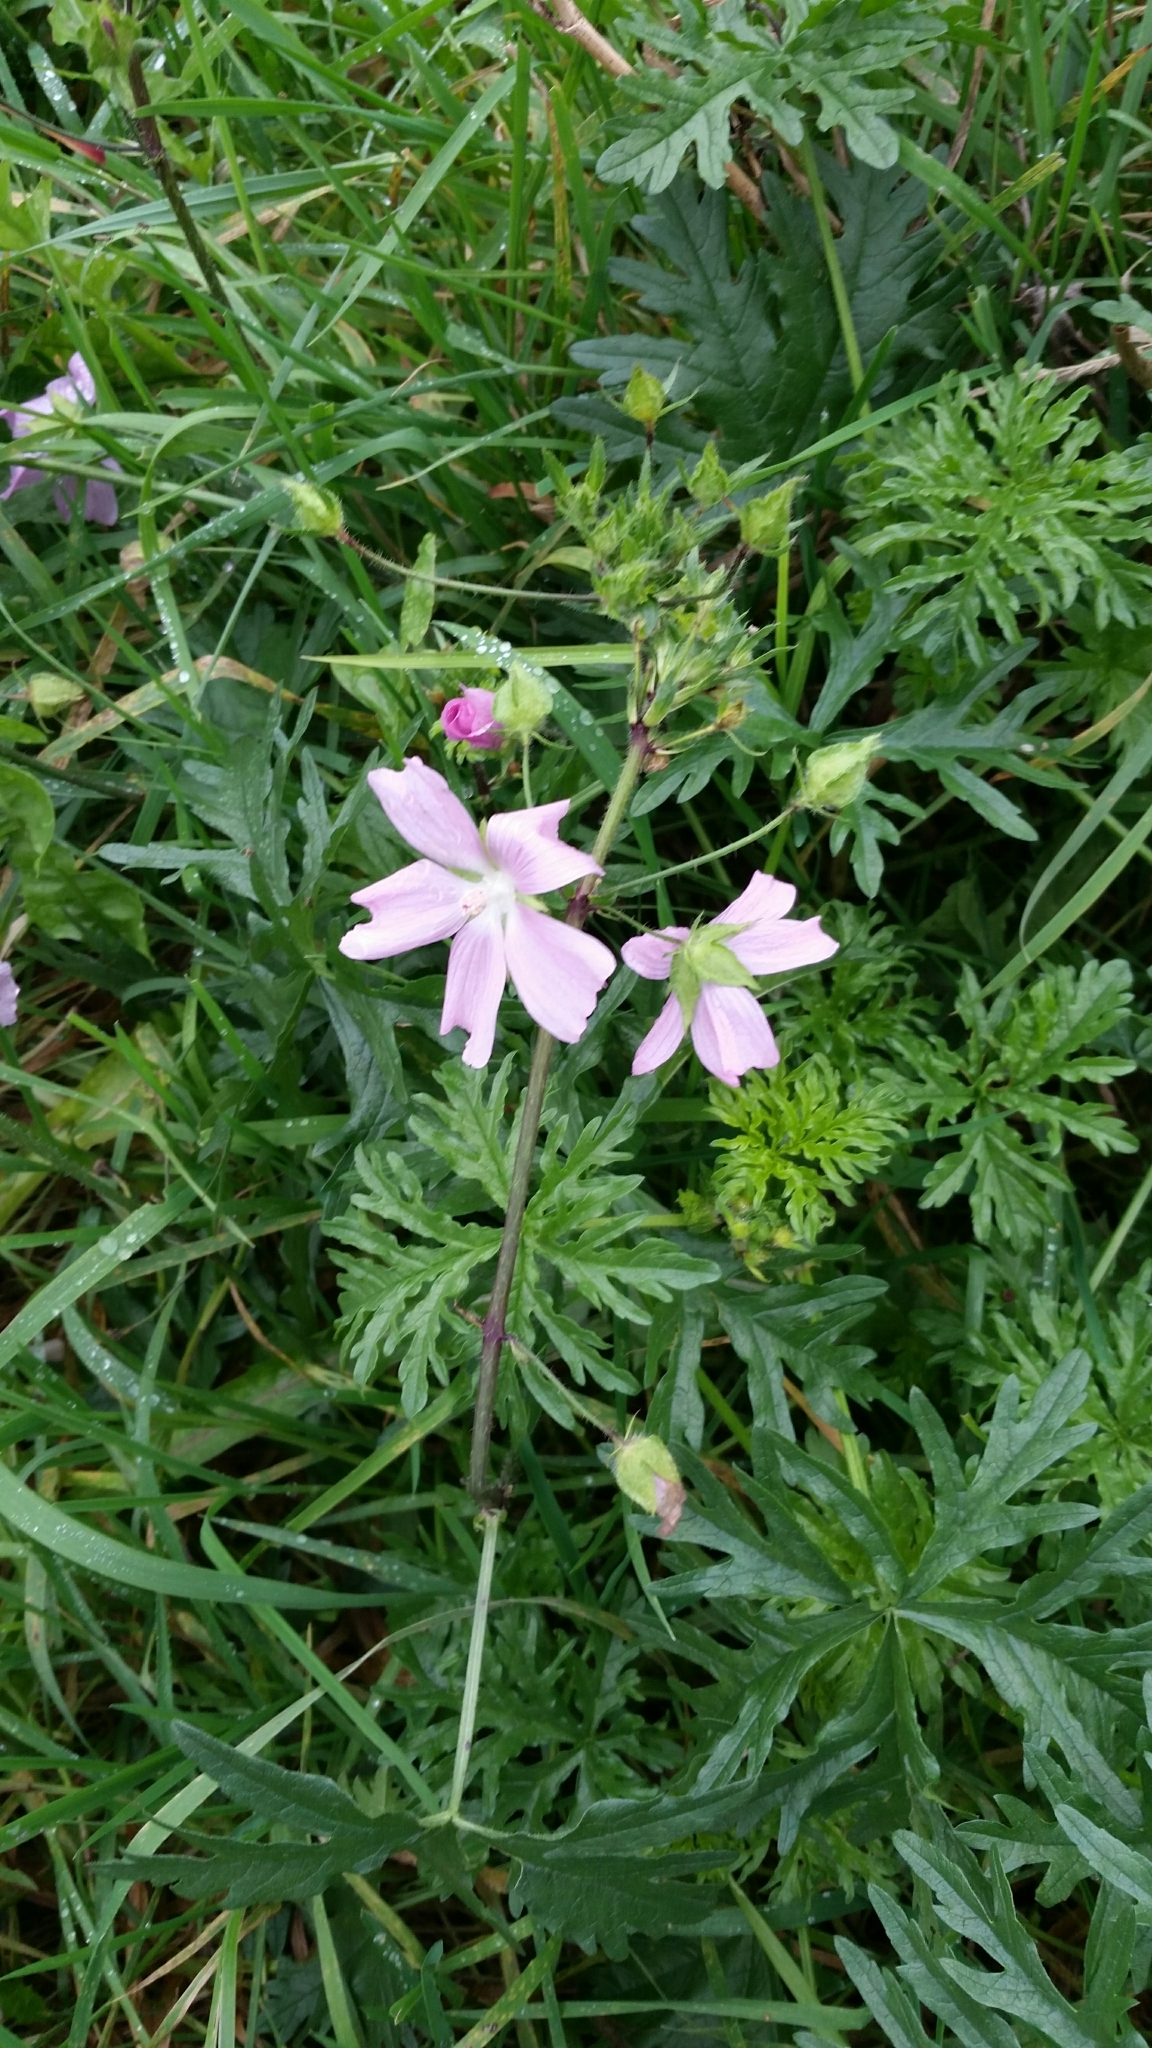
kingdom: Plantae
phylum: Tracheophyta
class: Magnoliopsida
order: Malvales
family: Malvaceae
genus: Malva
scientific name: Malva moschata
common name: Musk mallow
